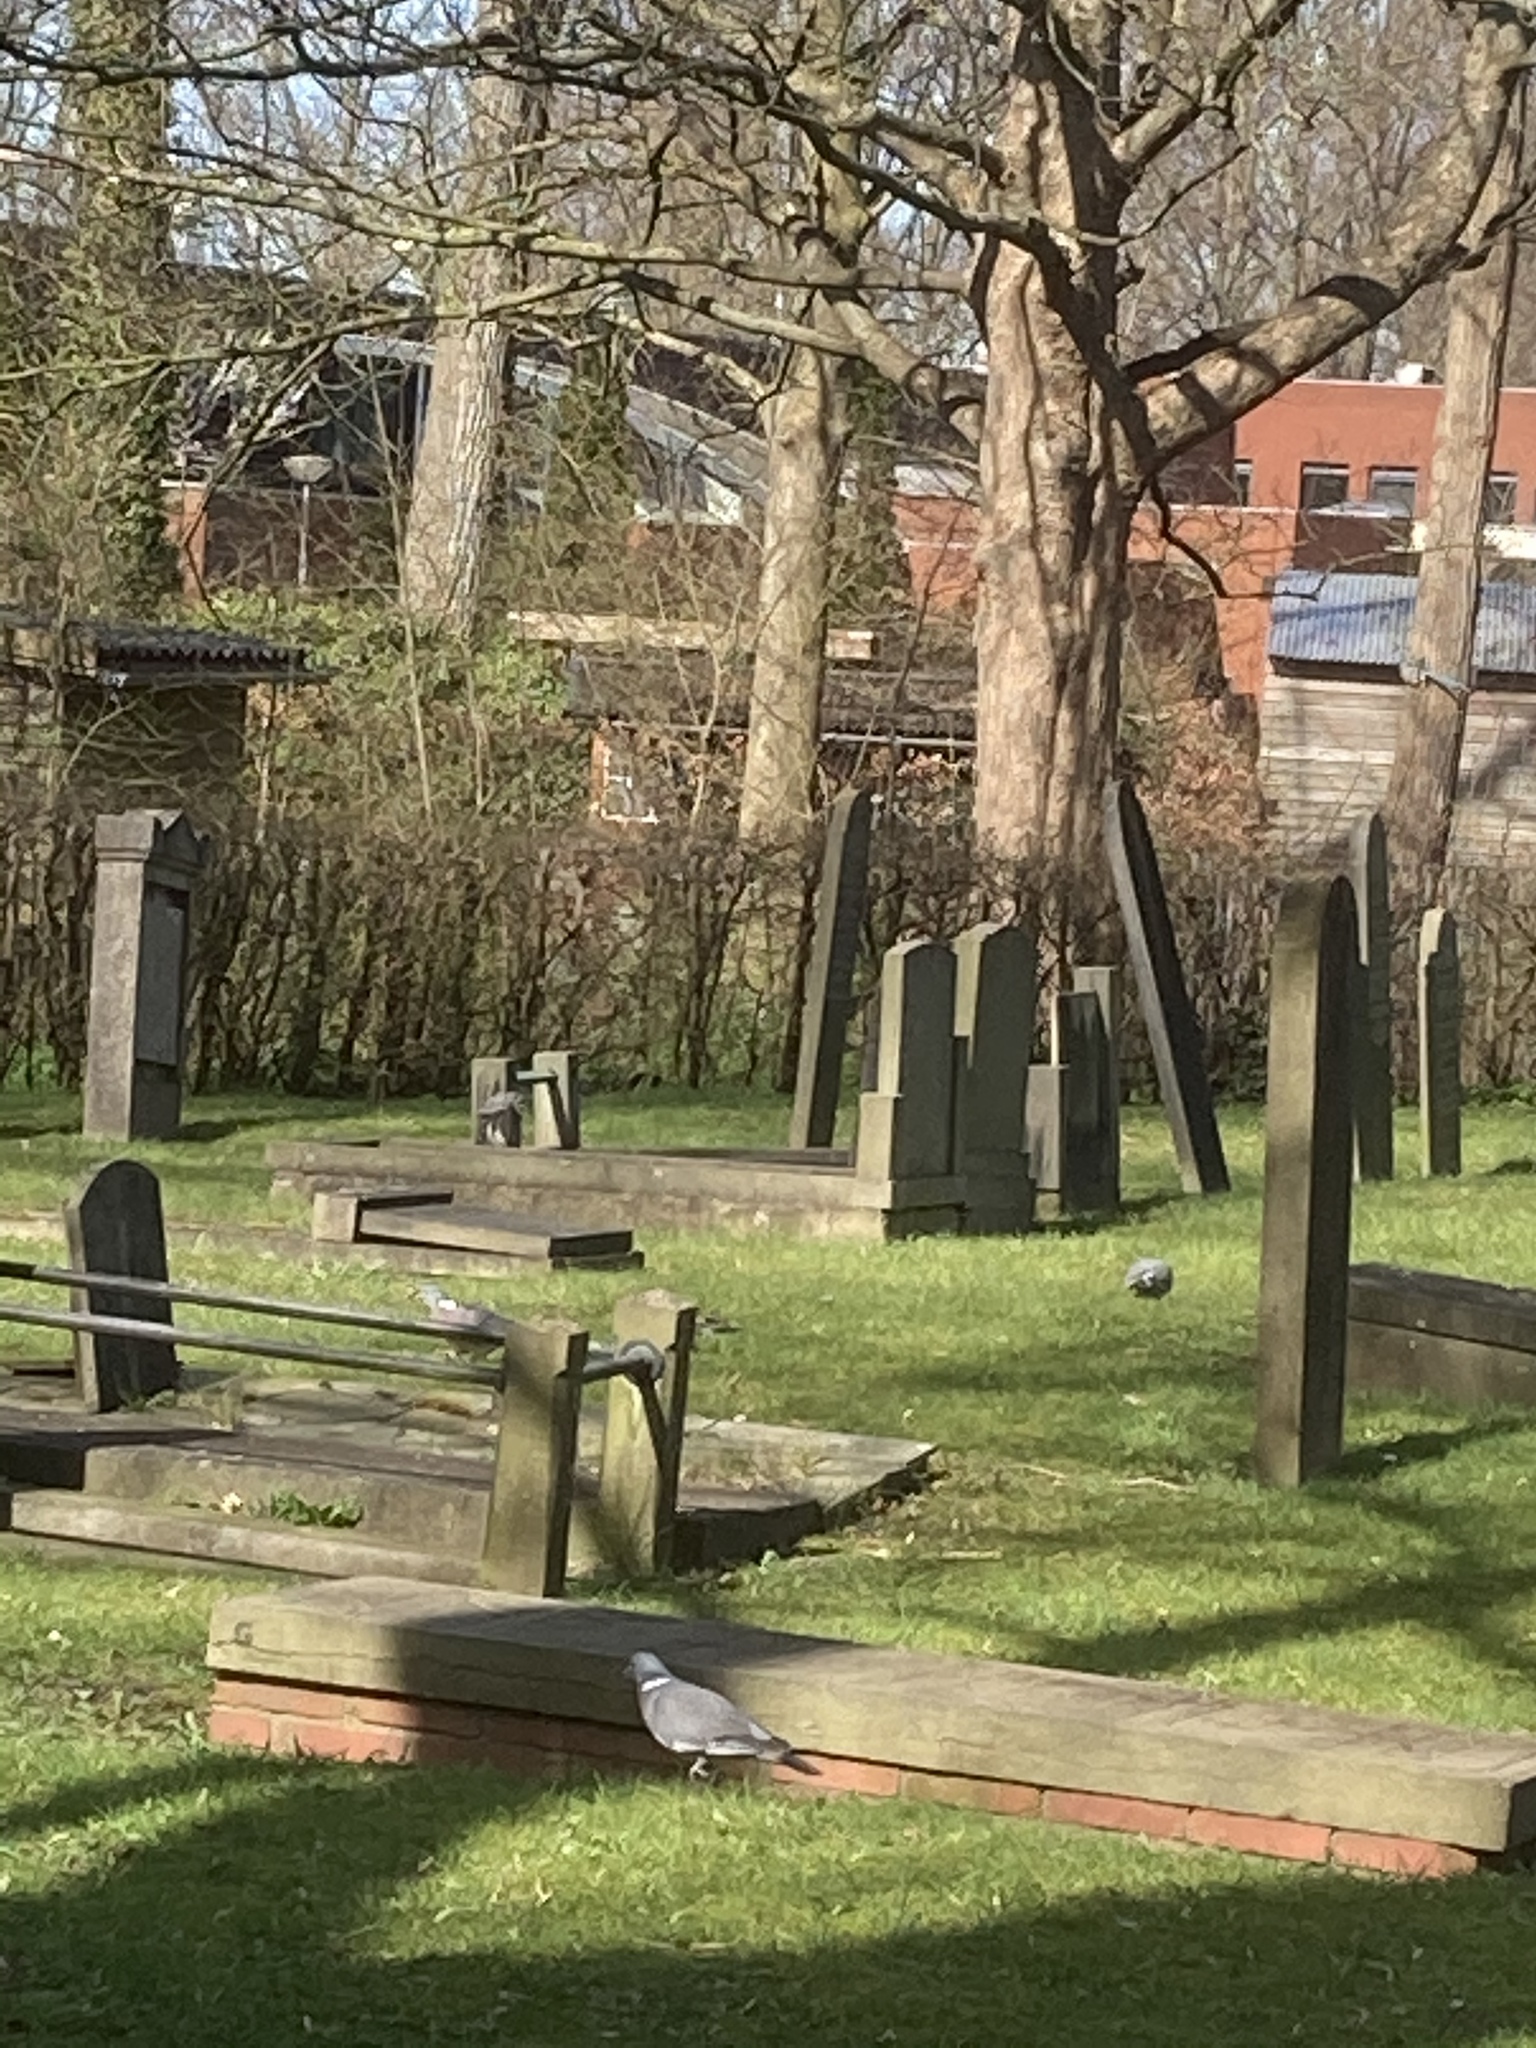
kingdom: Animalia
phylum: Chordata
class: Aves
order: Columbiformes
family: Columbidae
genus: Columba
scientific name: Columba palumbus
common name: Common wood pigeon
